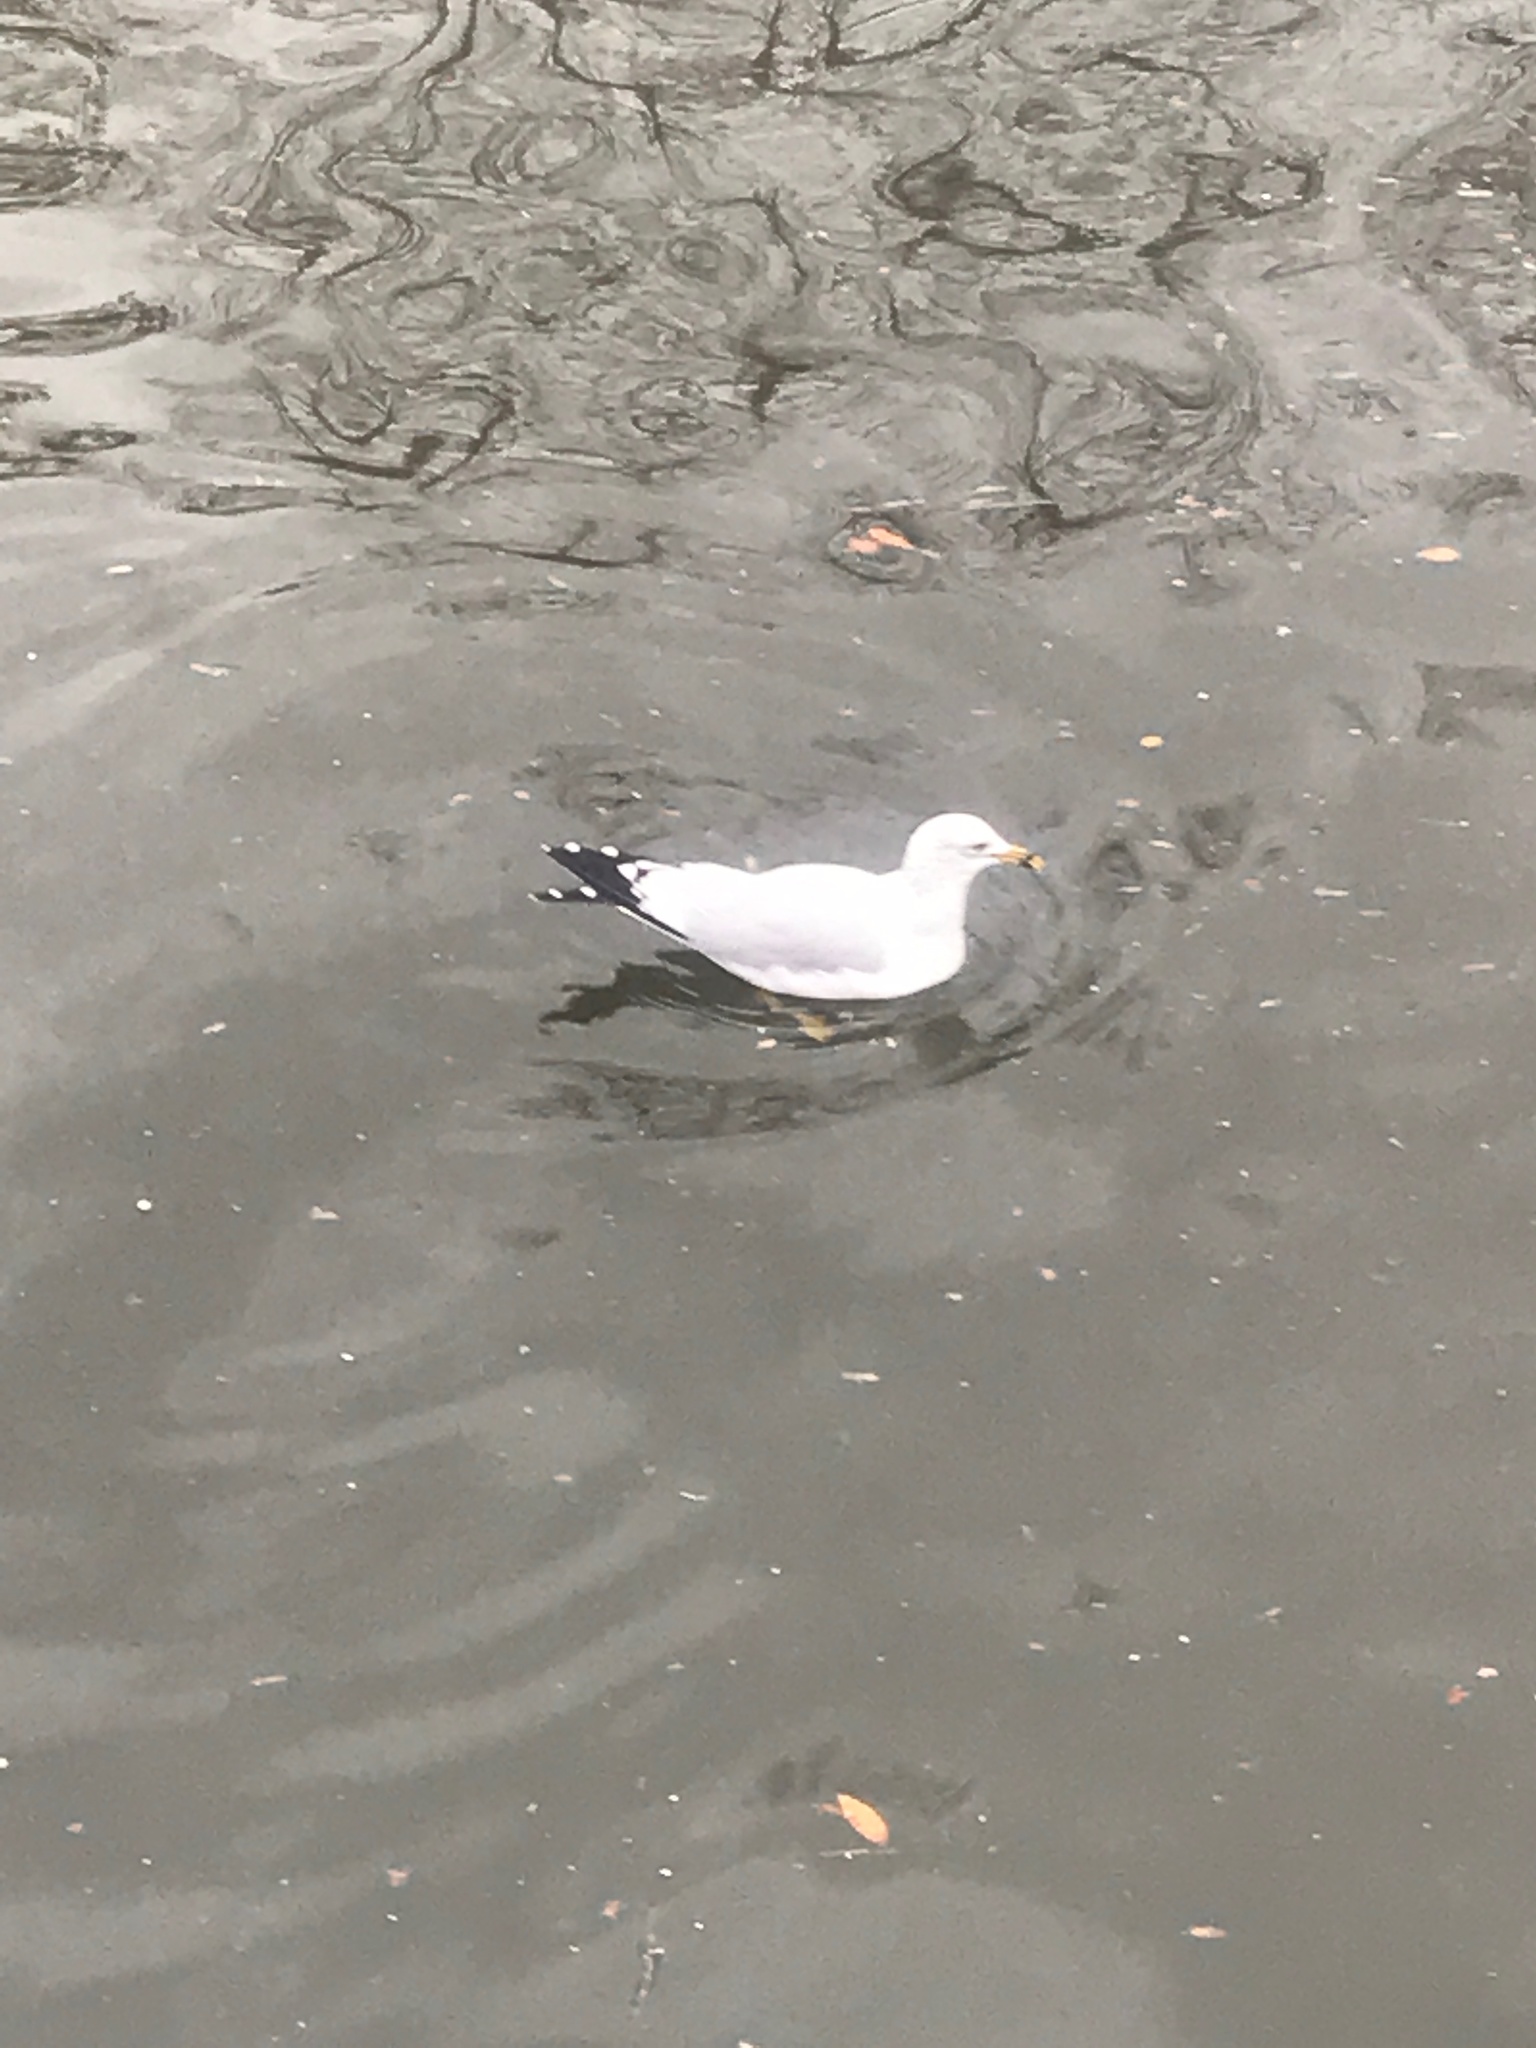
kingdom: Animalia
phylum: Chordata
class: Aves
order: Charadriiformes
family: Laridae
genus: Larus
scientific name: Larus delawarensis
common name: Ring-billed gull
